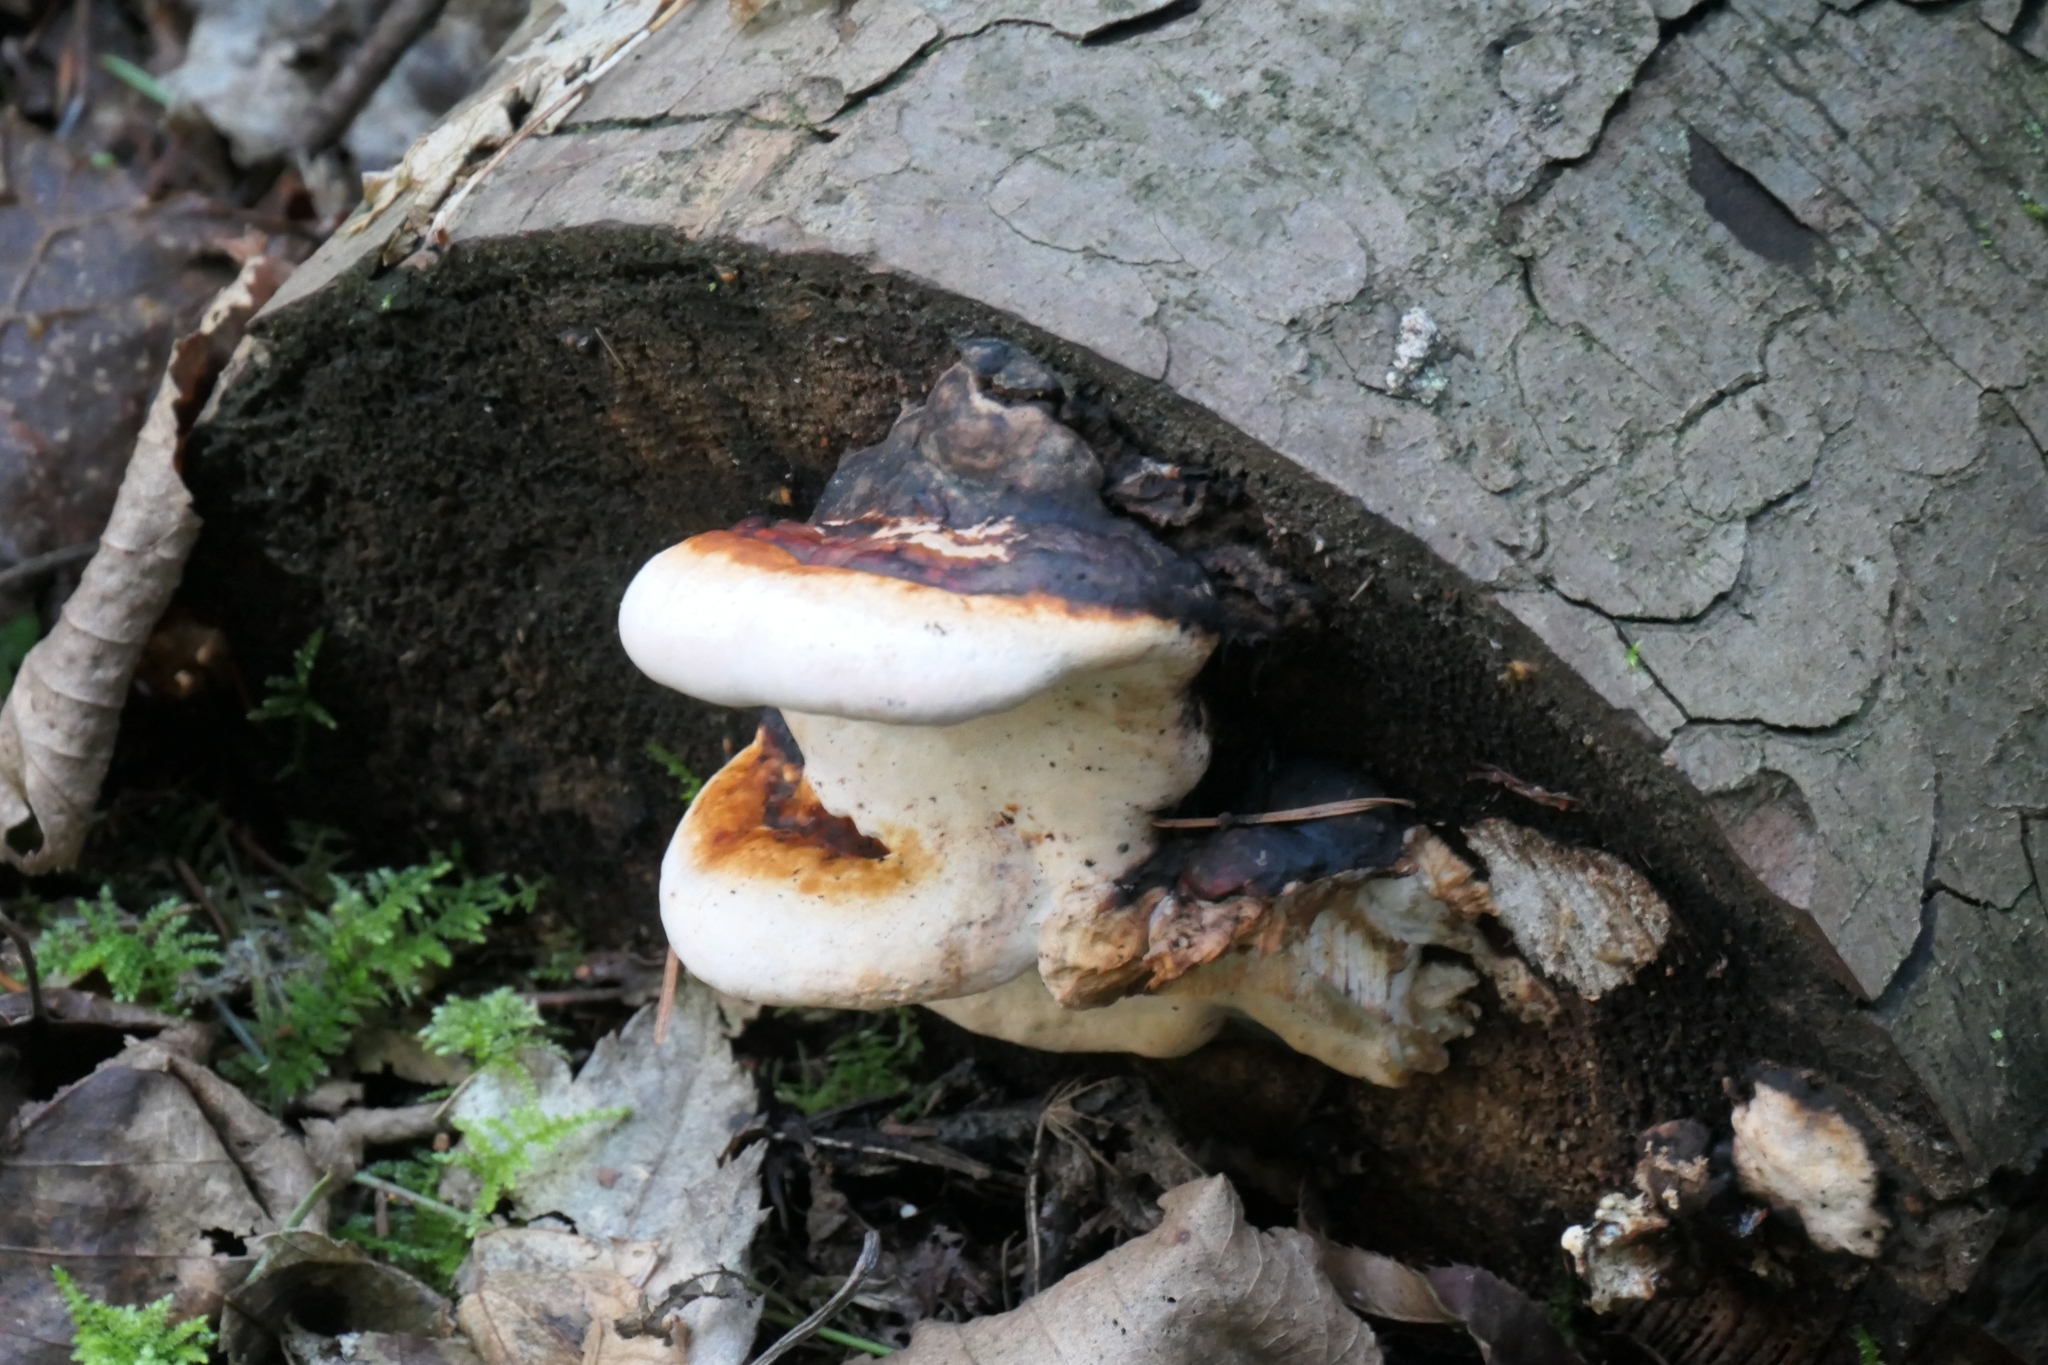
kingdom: Fungi
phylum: Basidiomycota
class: Agaricomycetes
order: Polyporales
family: Fomitopsidaceae
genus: Fomitopsis
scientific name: Fomitopsis mounceae
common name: Northern red belt
